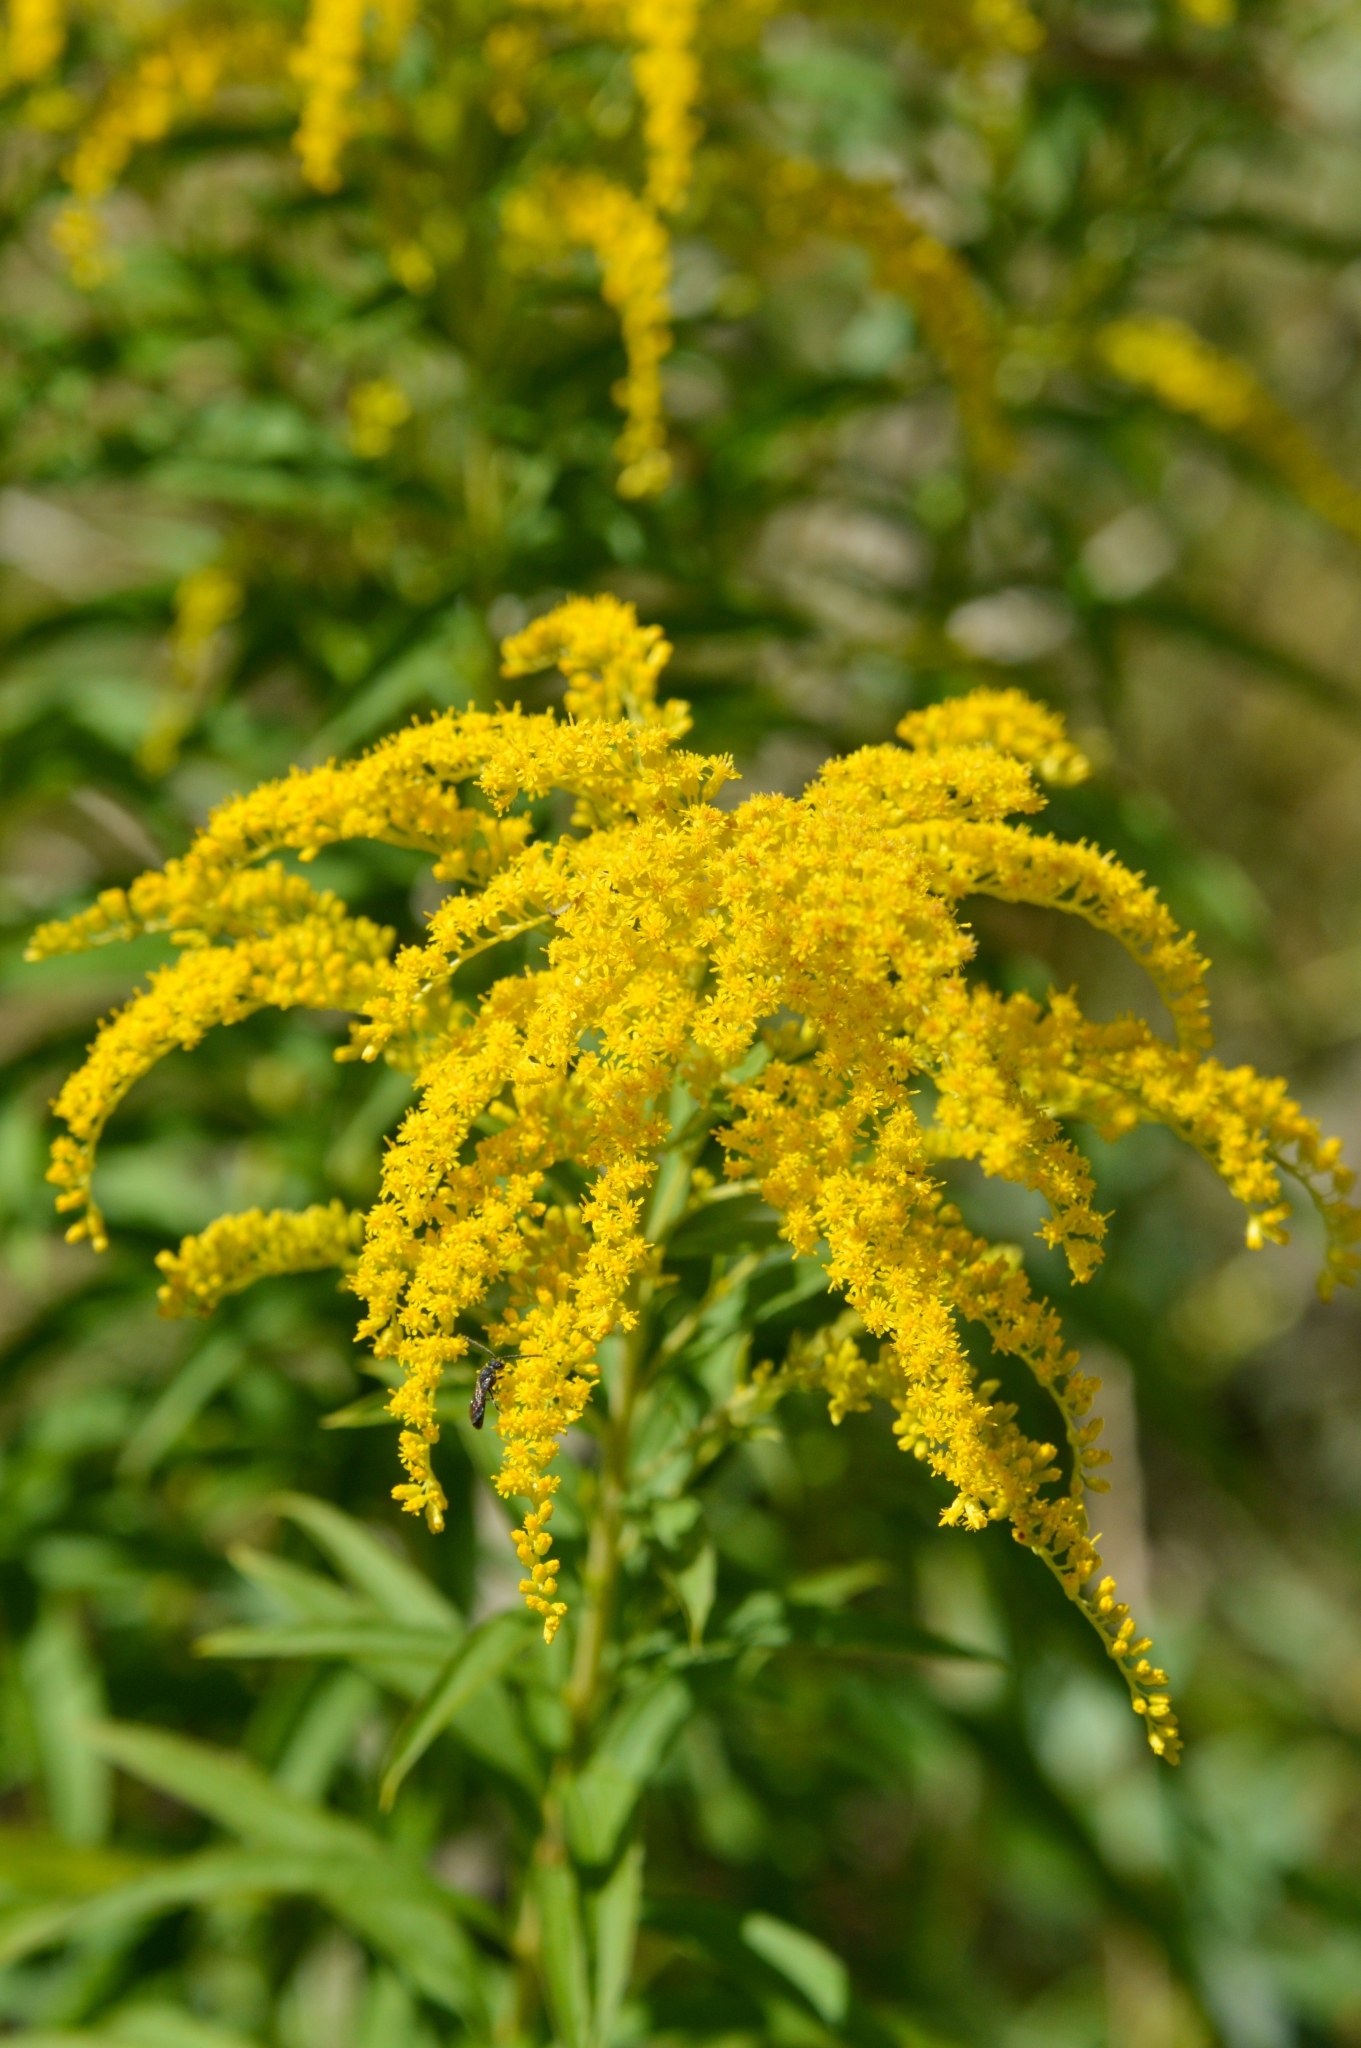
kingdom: Plantae
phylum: Tracheophyta
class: Magnoliopsida
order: Asterales
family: Asteraceae
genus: Solidago
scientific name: Solidago canadensis
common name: Canada goldenrod
